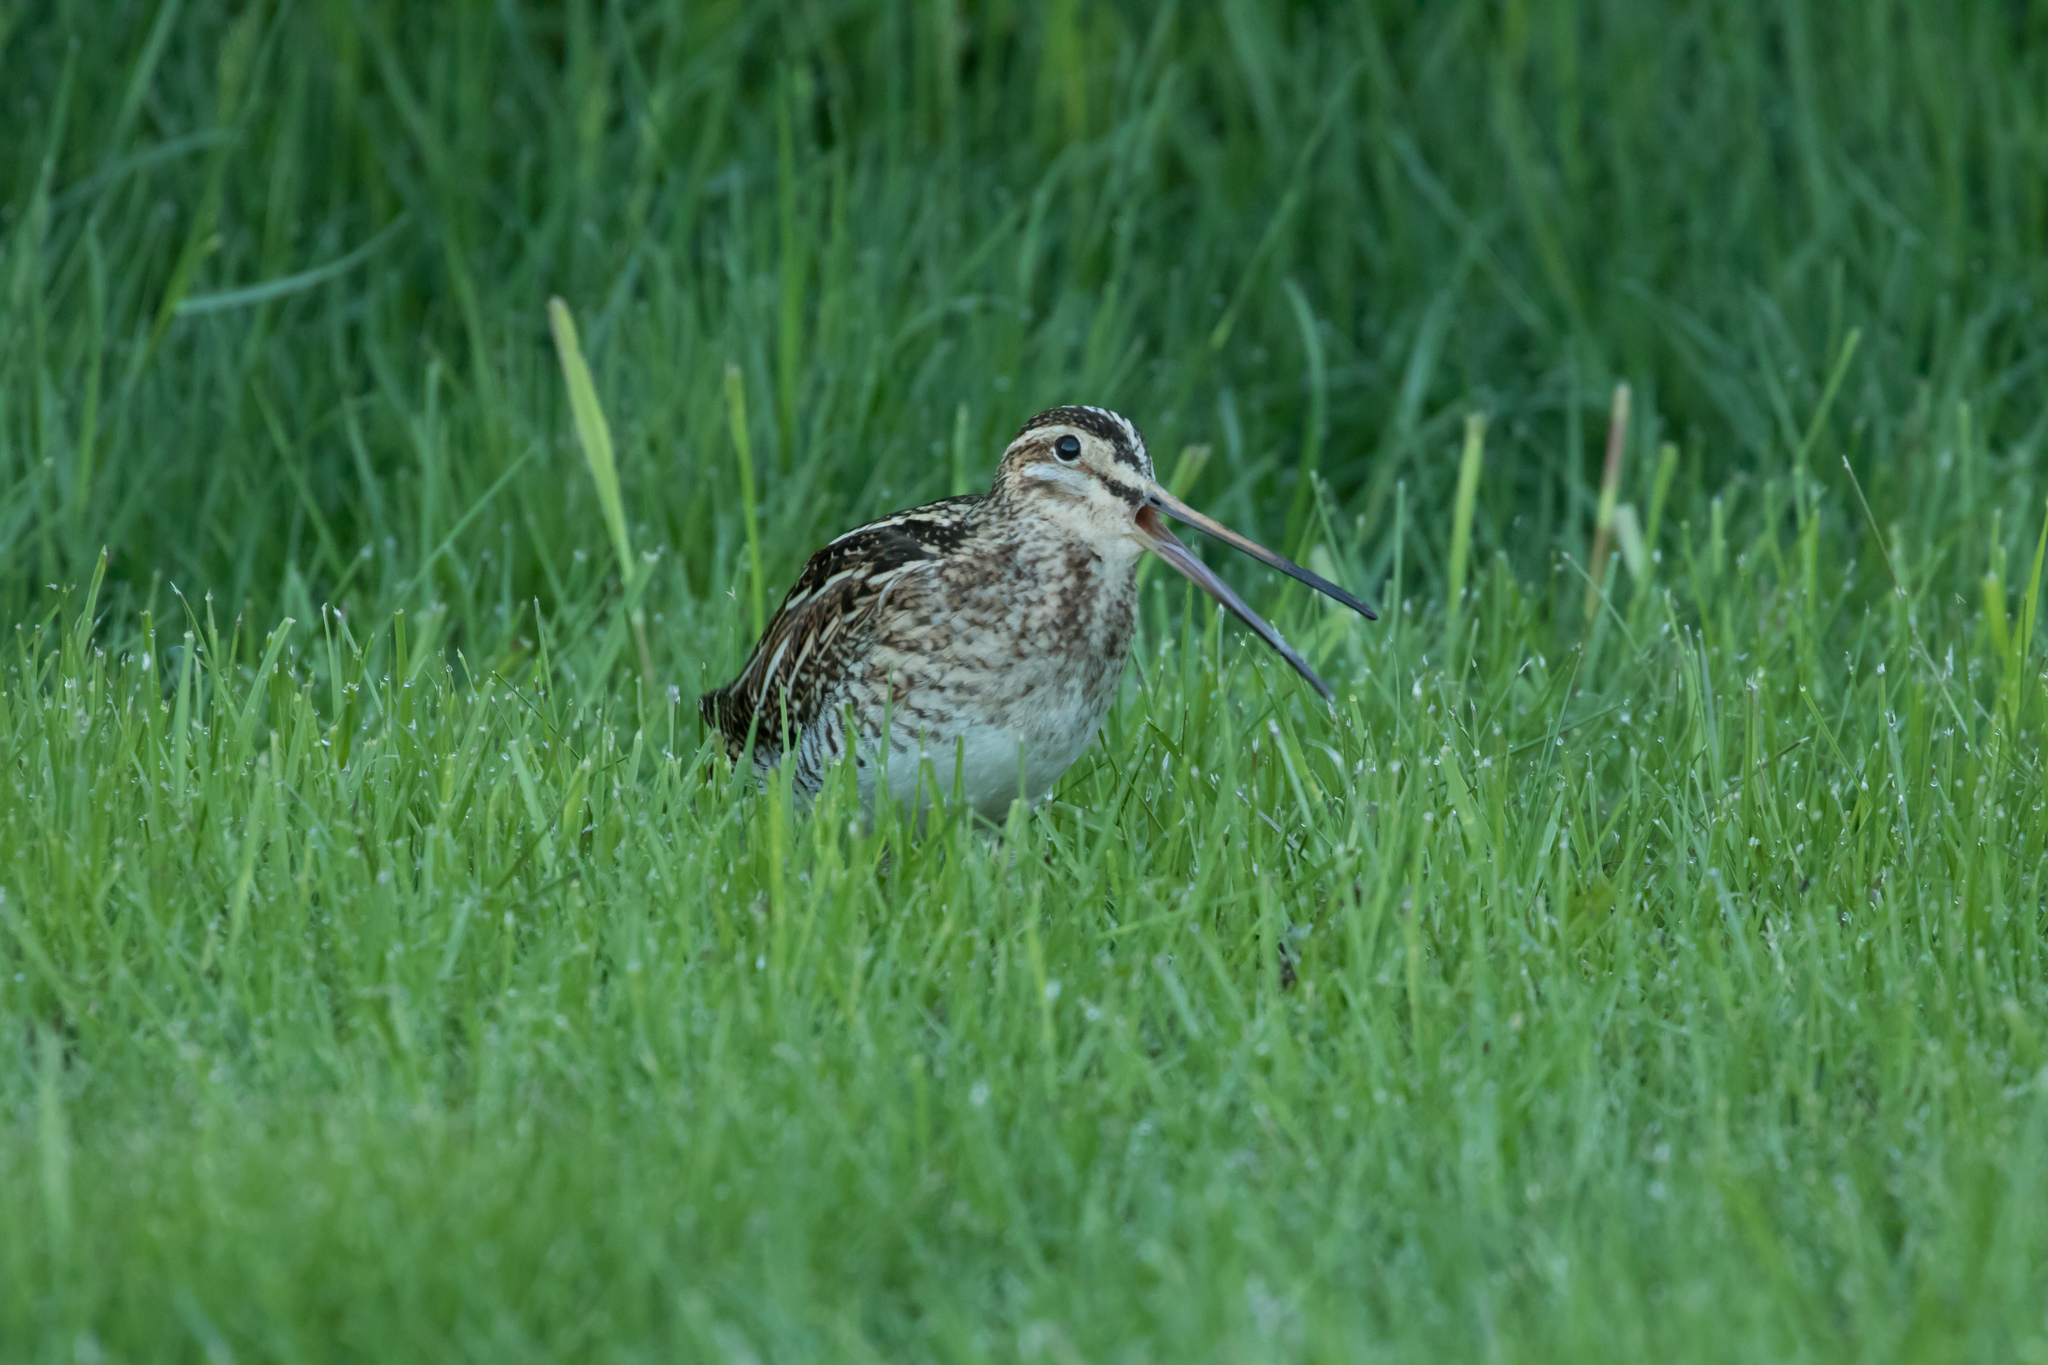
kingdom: Animalia
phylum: Chordata
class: Aves
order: Charadriiformes
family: Scolopacidae
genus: Gallinago
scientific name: Gallinago gallinago
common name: Common snipe
